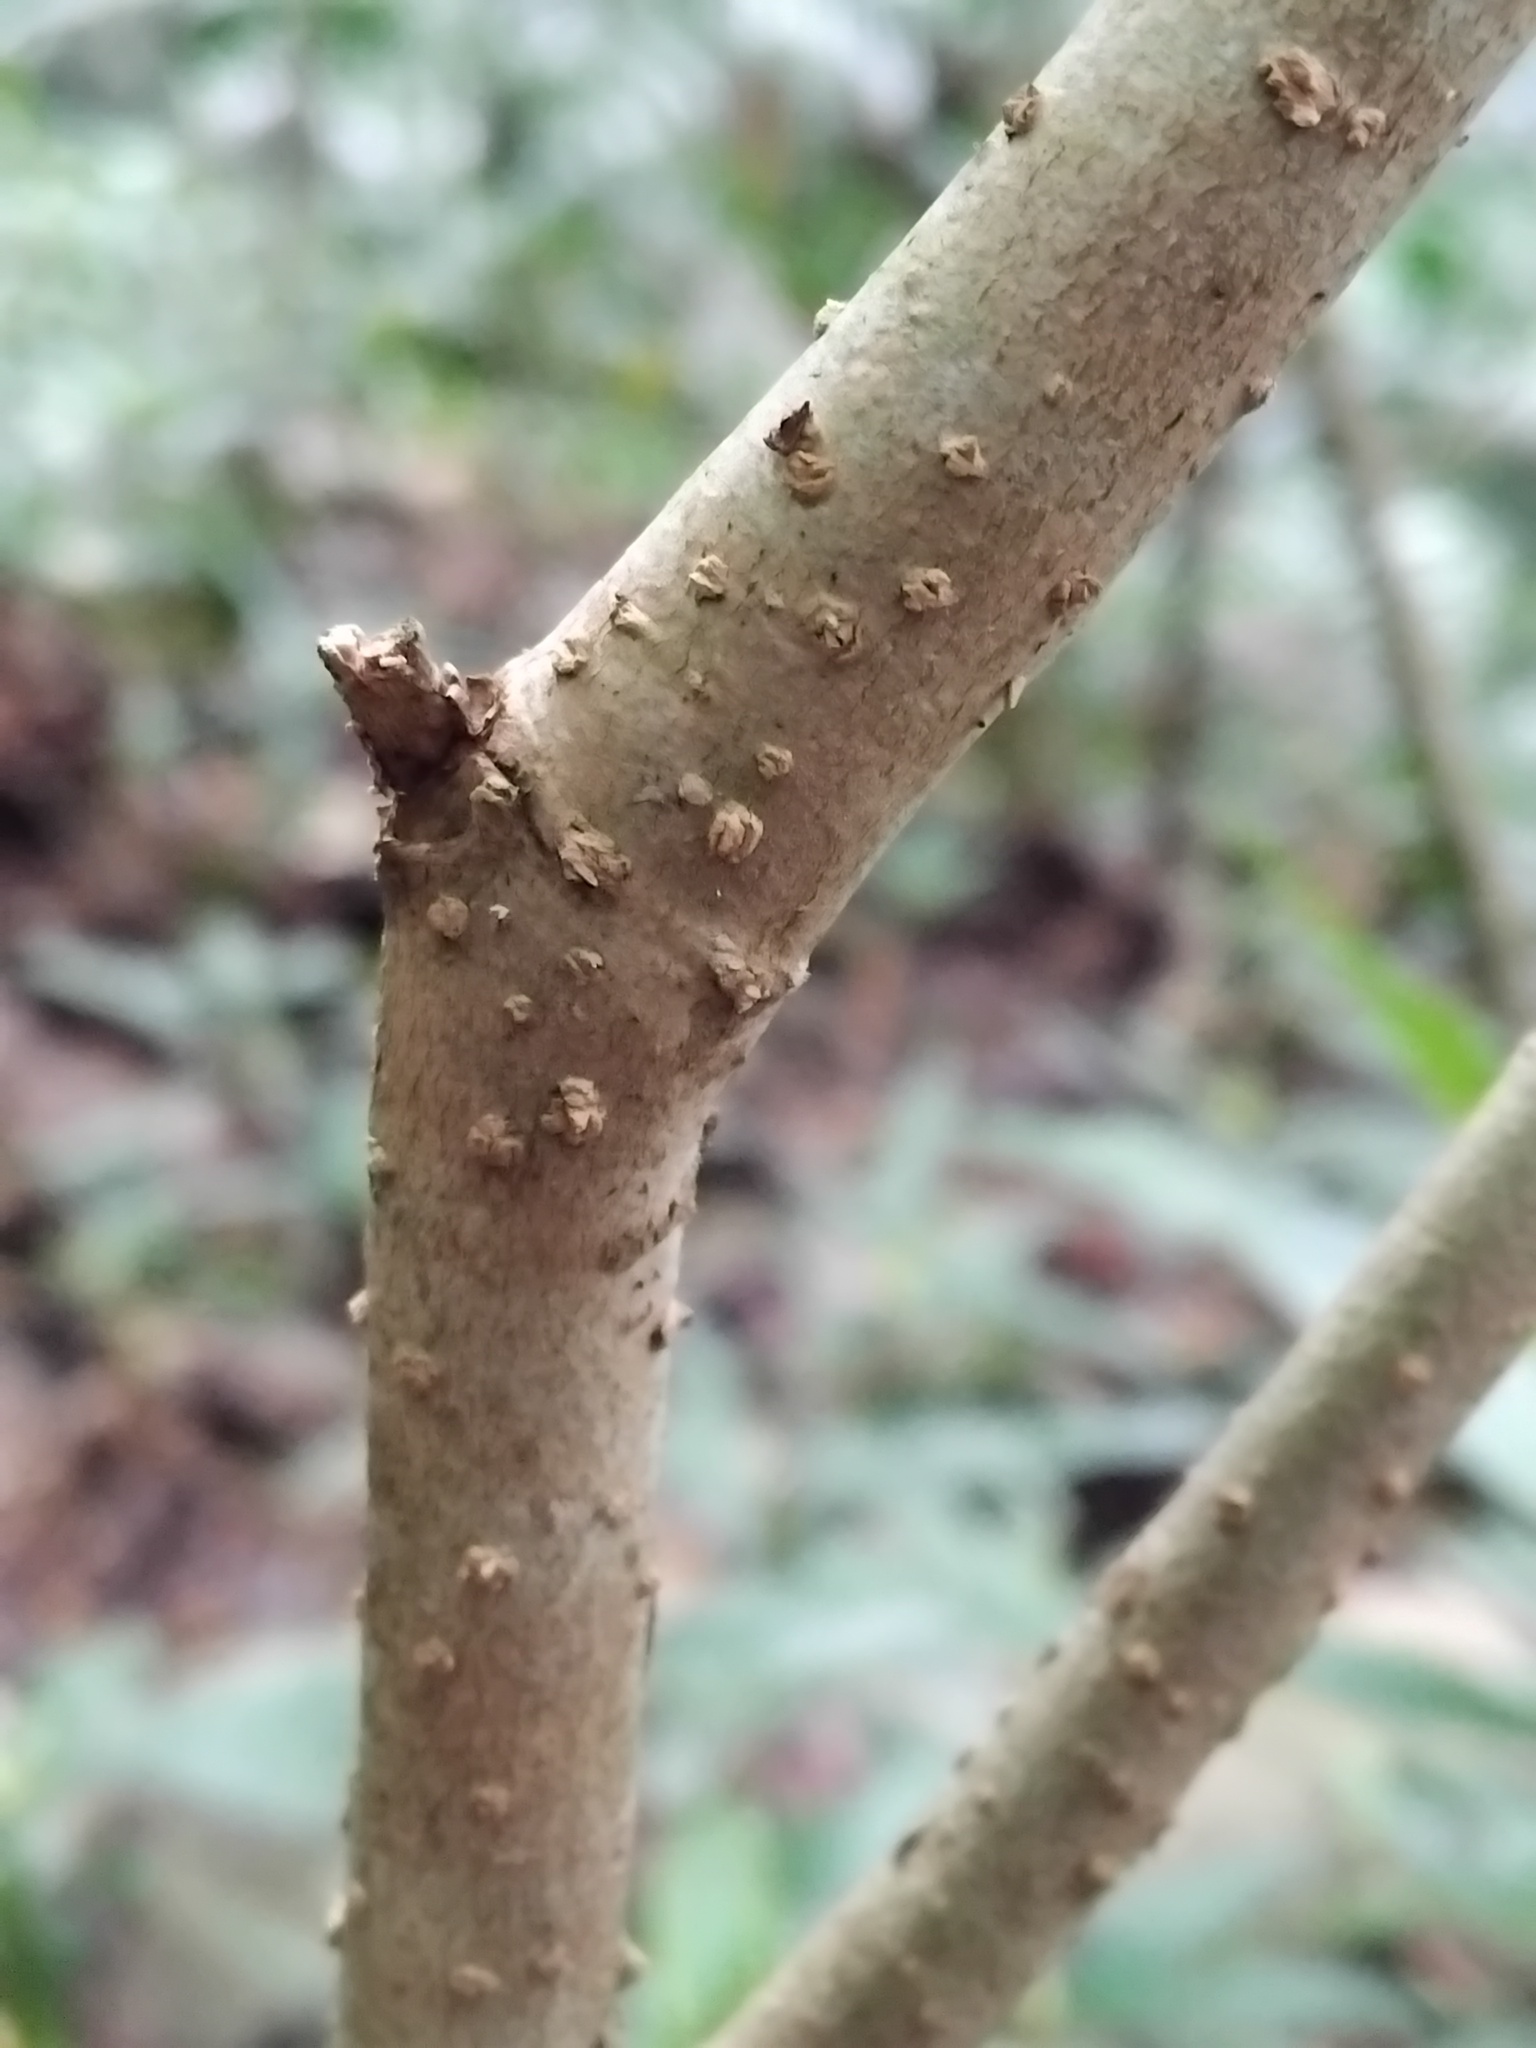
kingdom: Plantae
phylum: Tracheophyta
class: Magnoliopsida
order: Apiales
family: Pittosporaceae
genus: Pittosporum
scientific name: Pittosporum undulatum
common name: Australian cheesewood
